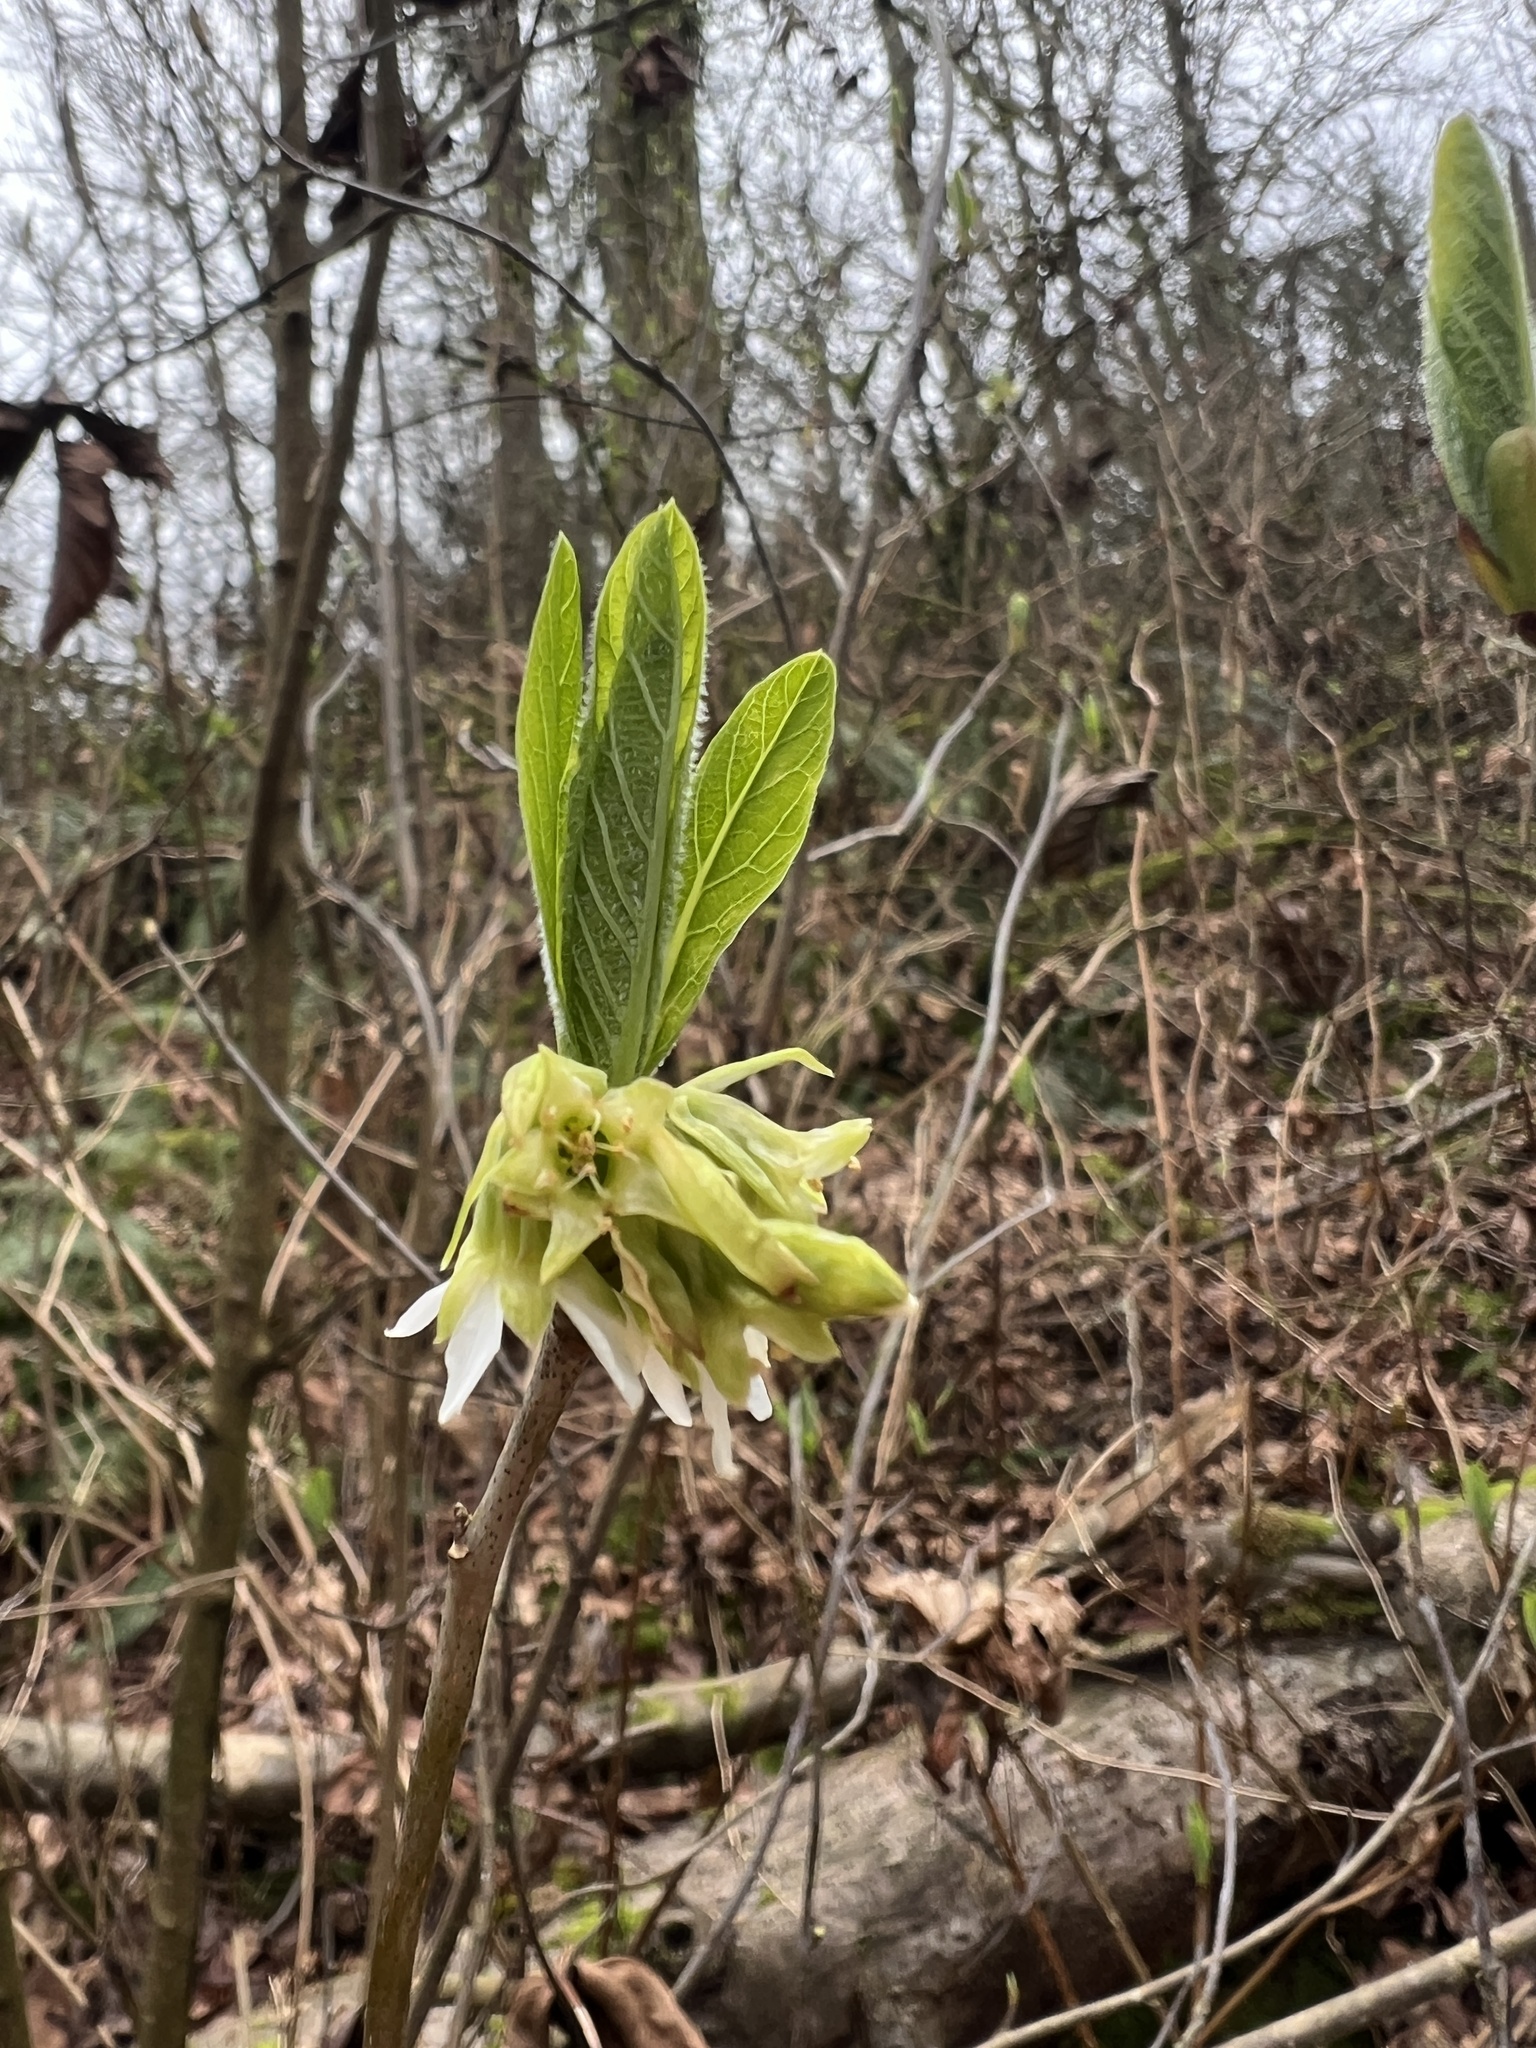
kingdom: Plantae
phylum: Tracheophyta
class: Magnoliopsida
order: Rosales
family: Rosaceae
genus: Oemleria
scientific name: Oemleria cerasiformis
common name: Osoberry
